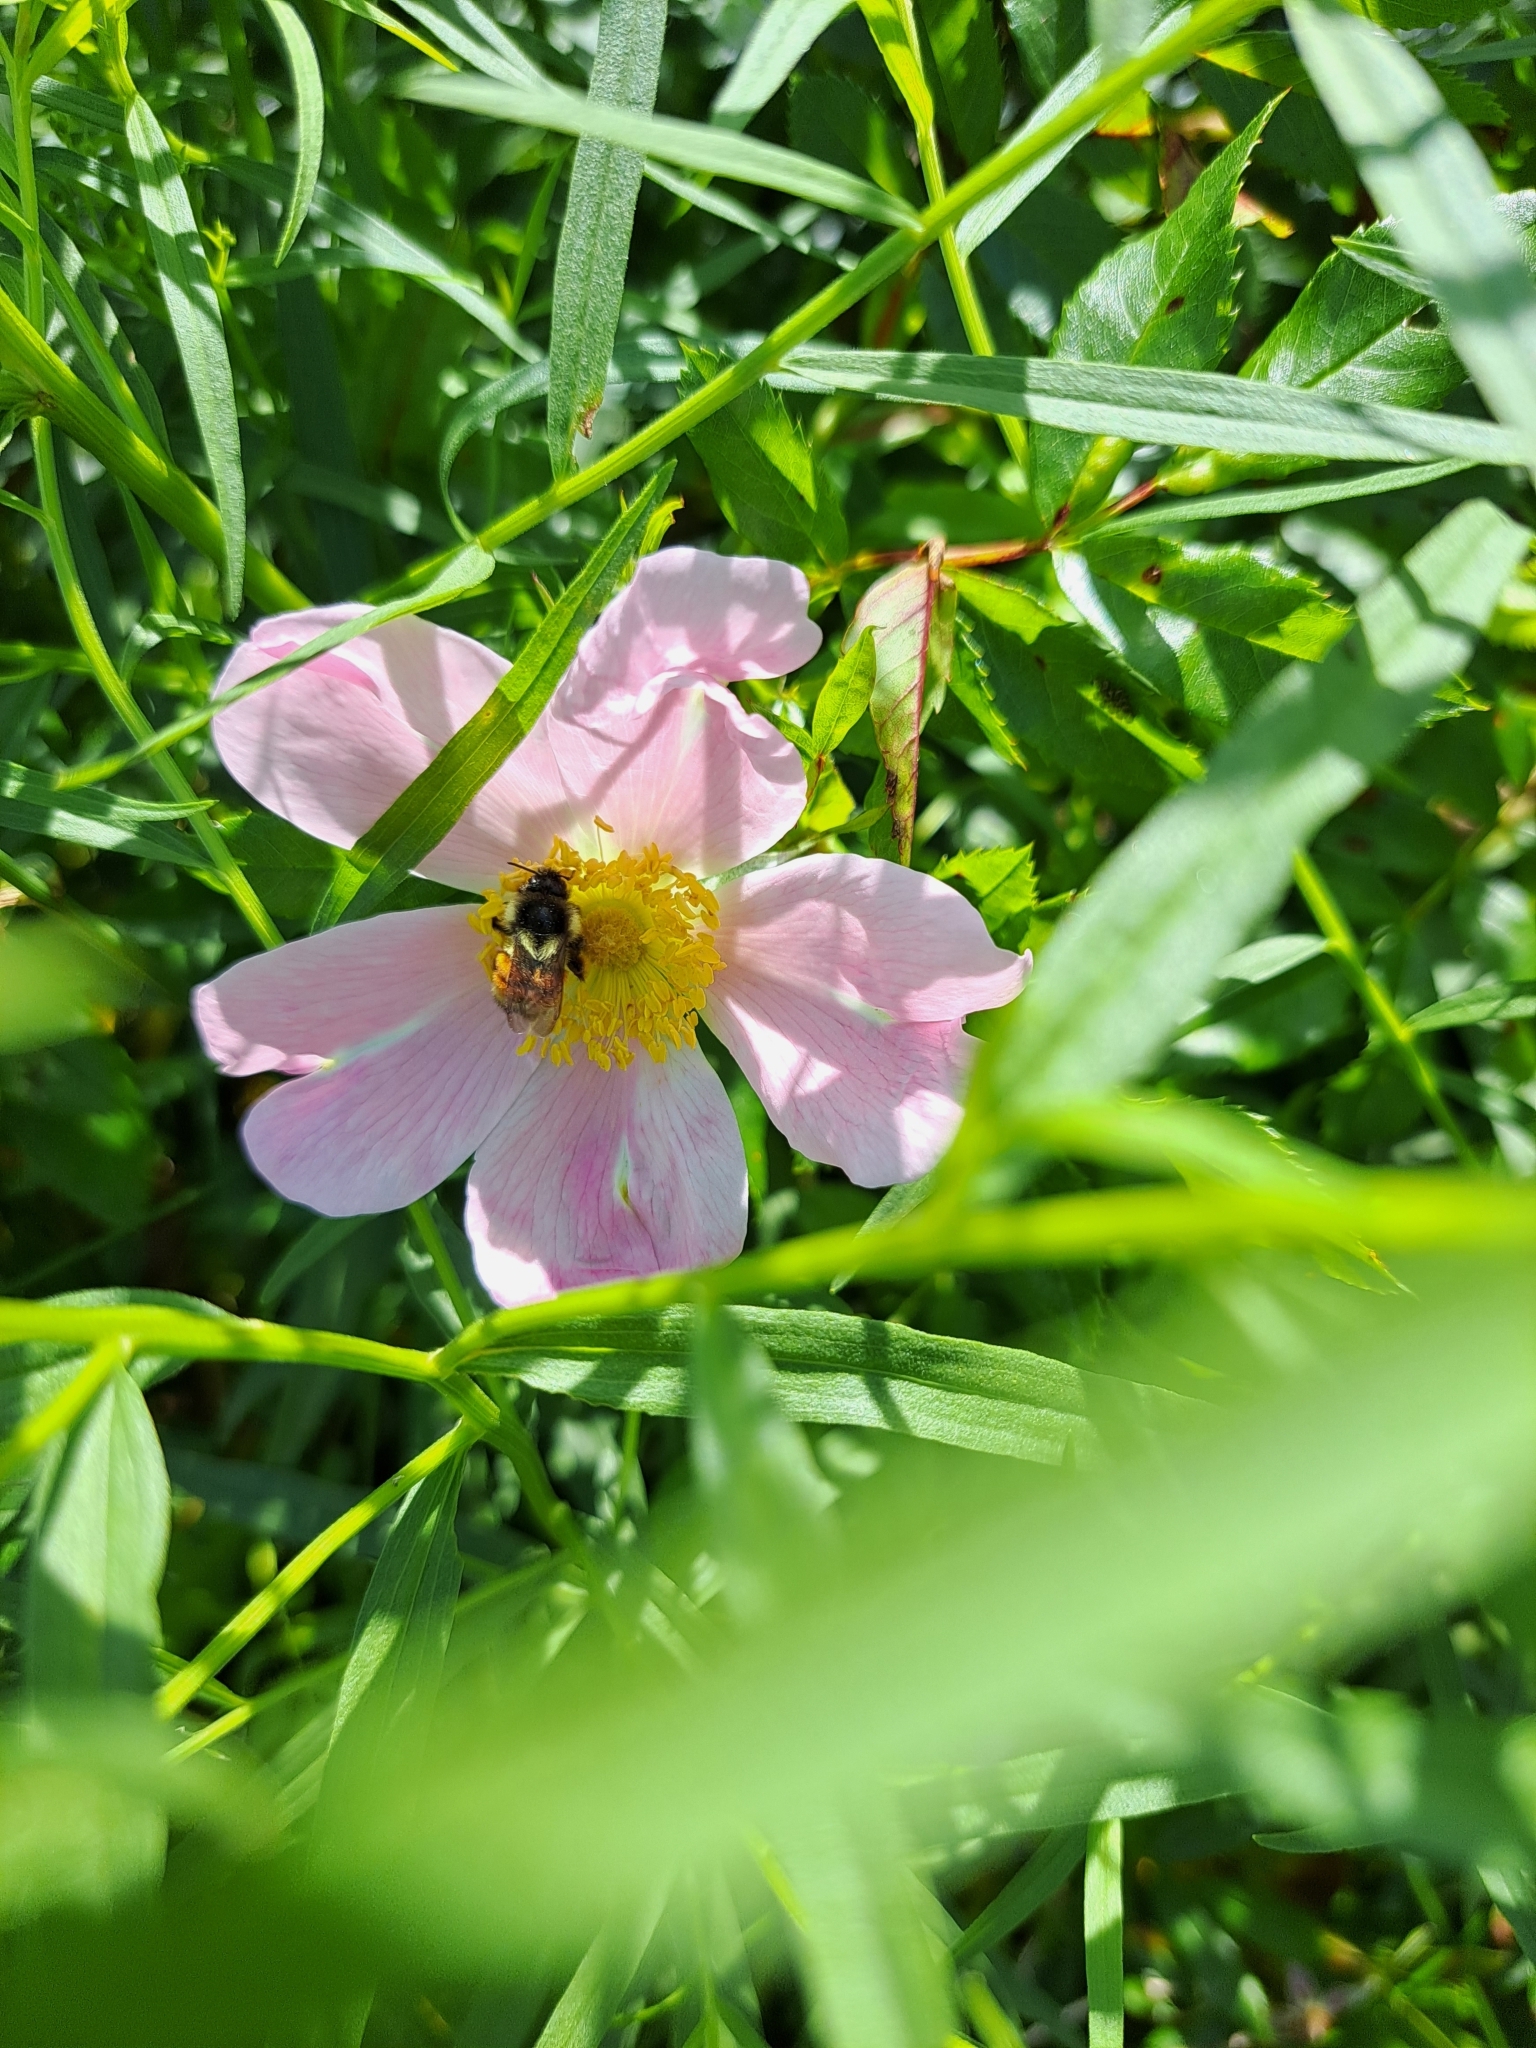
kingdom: Animalia
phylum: Arthropoda
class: Insecta
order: Hymenoptera
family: Apidae
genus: Bombus
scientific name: Bombus ternarius
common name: Tri-colored bumble bee
